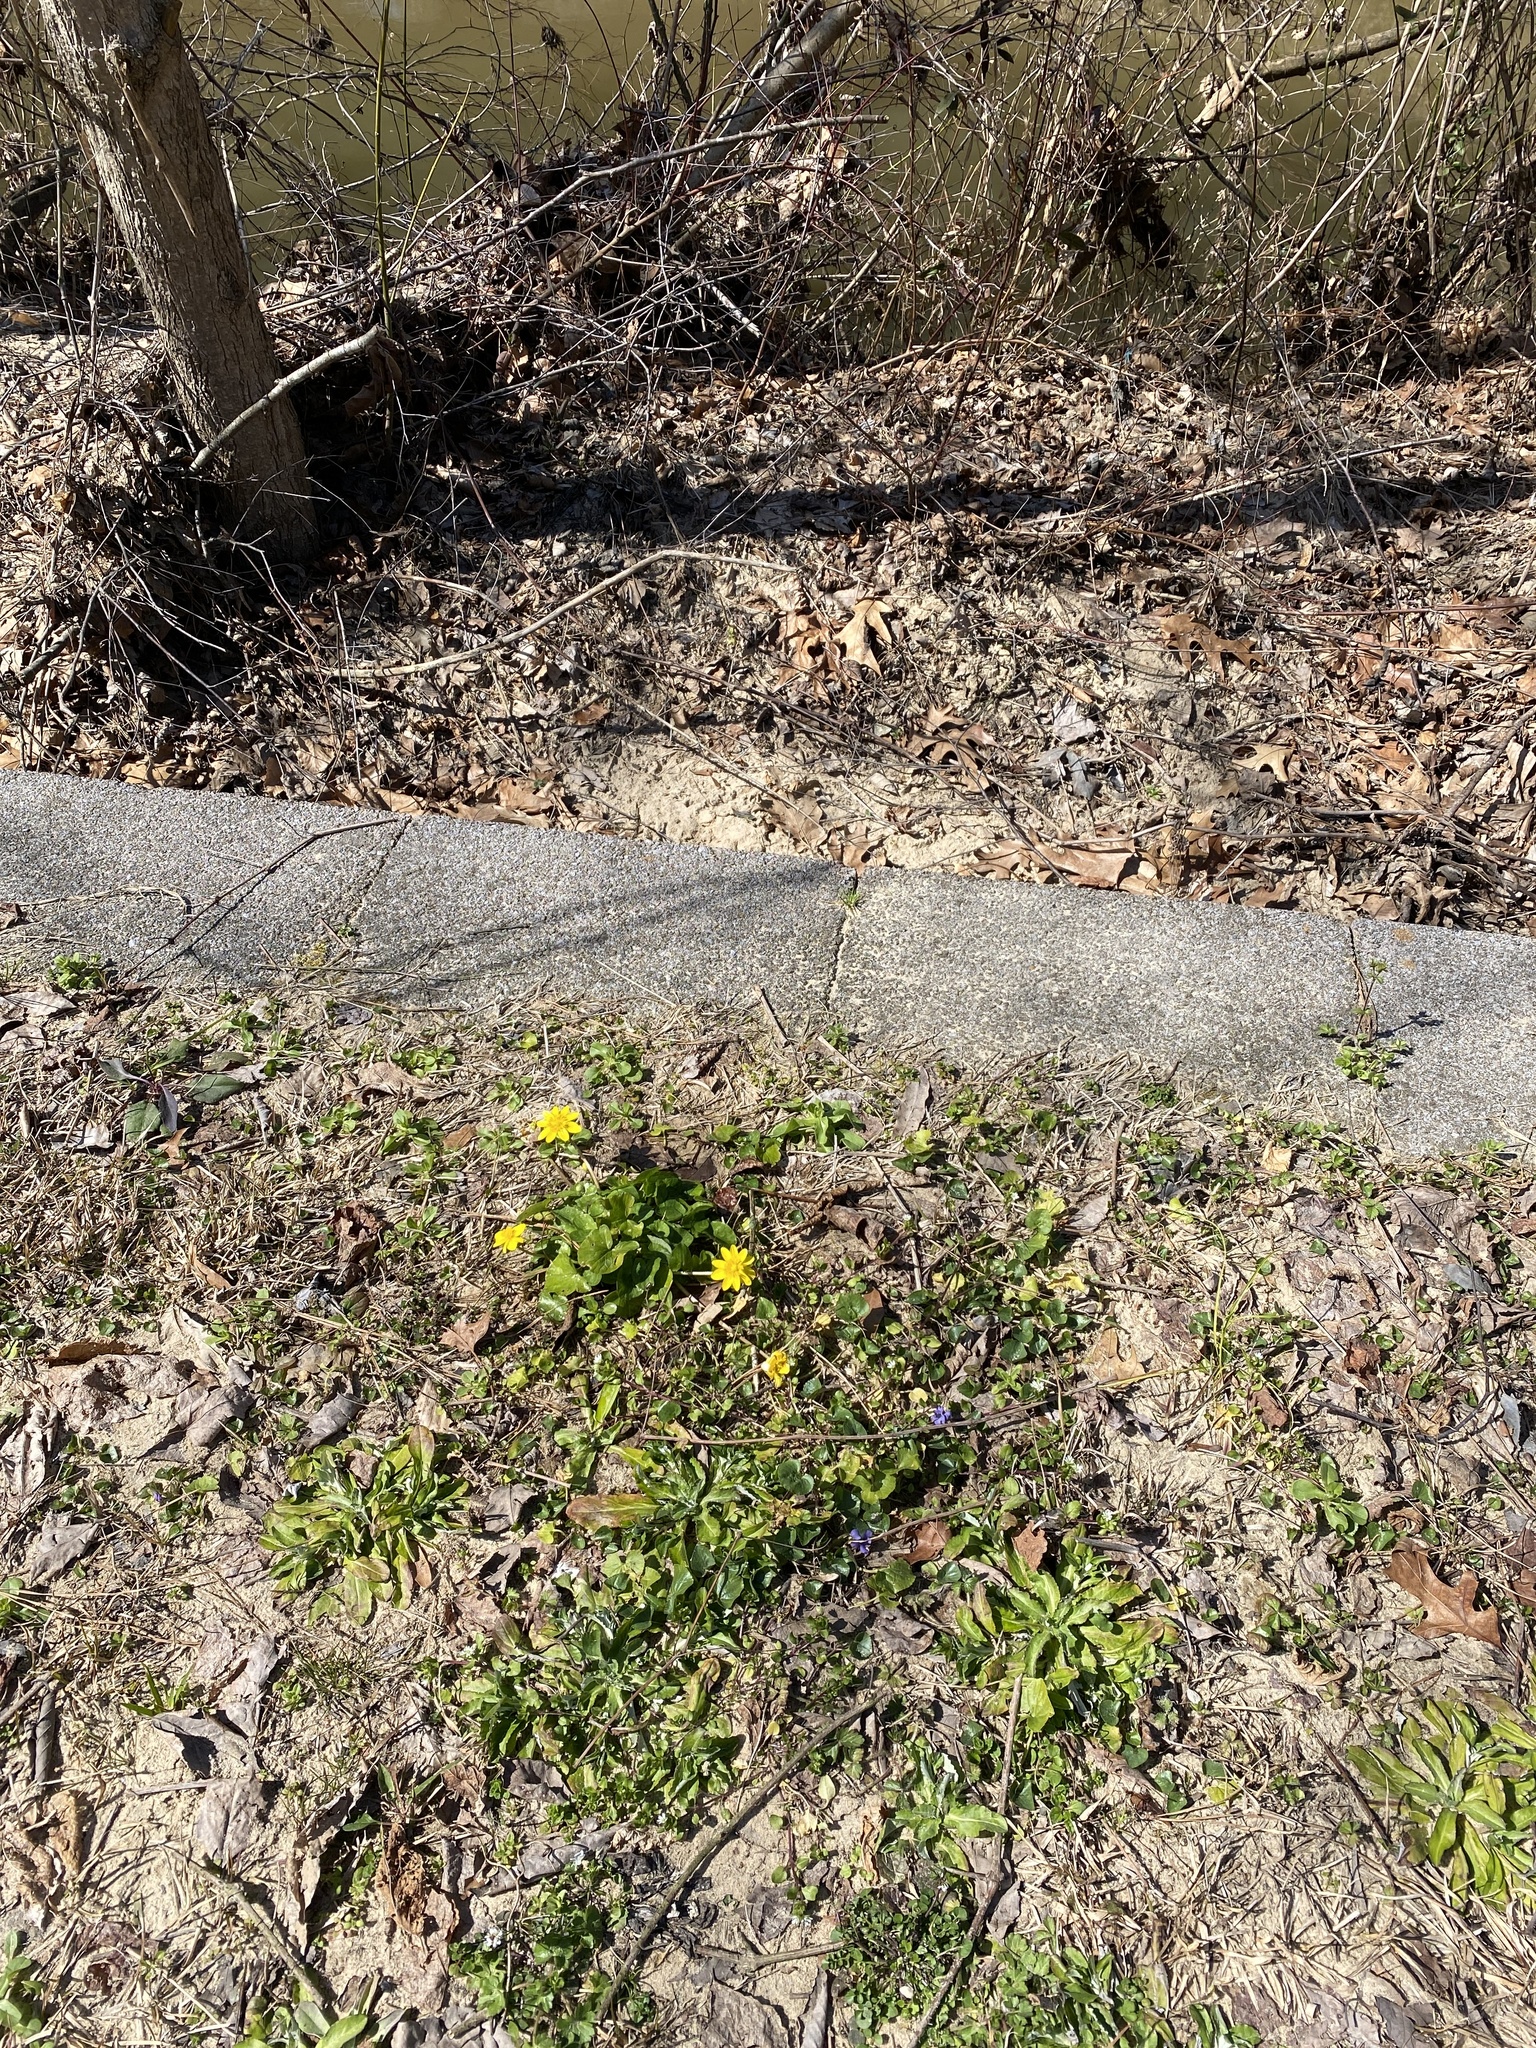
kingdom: Plantae
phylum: Tracheophyta
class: Magnoliopsida
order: Ranunculales
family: Ranunculaceae
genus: Ficaria
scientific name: Ficaria verna
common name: Lesser celandine
